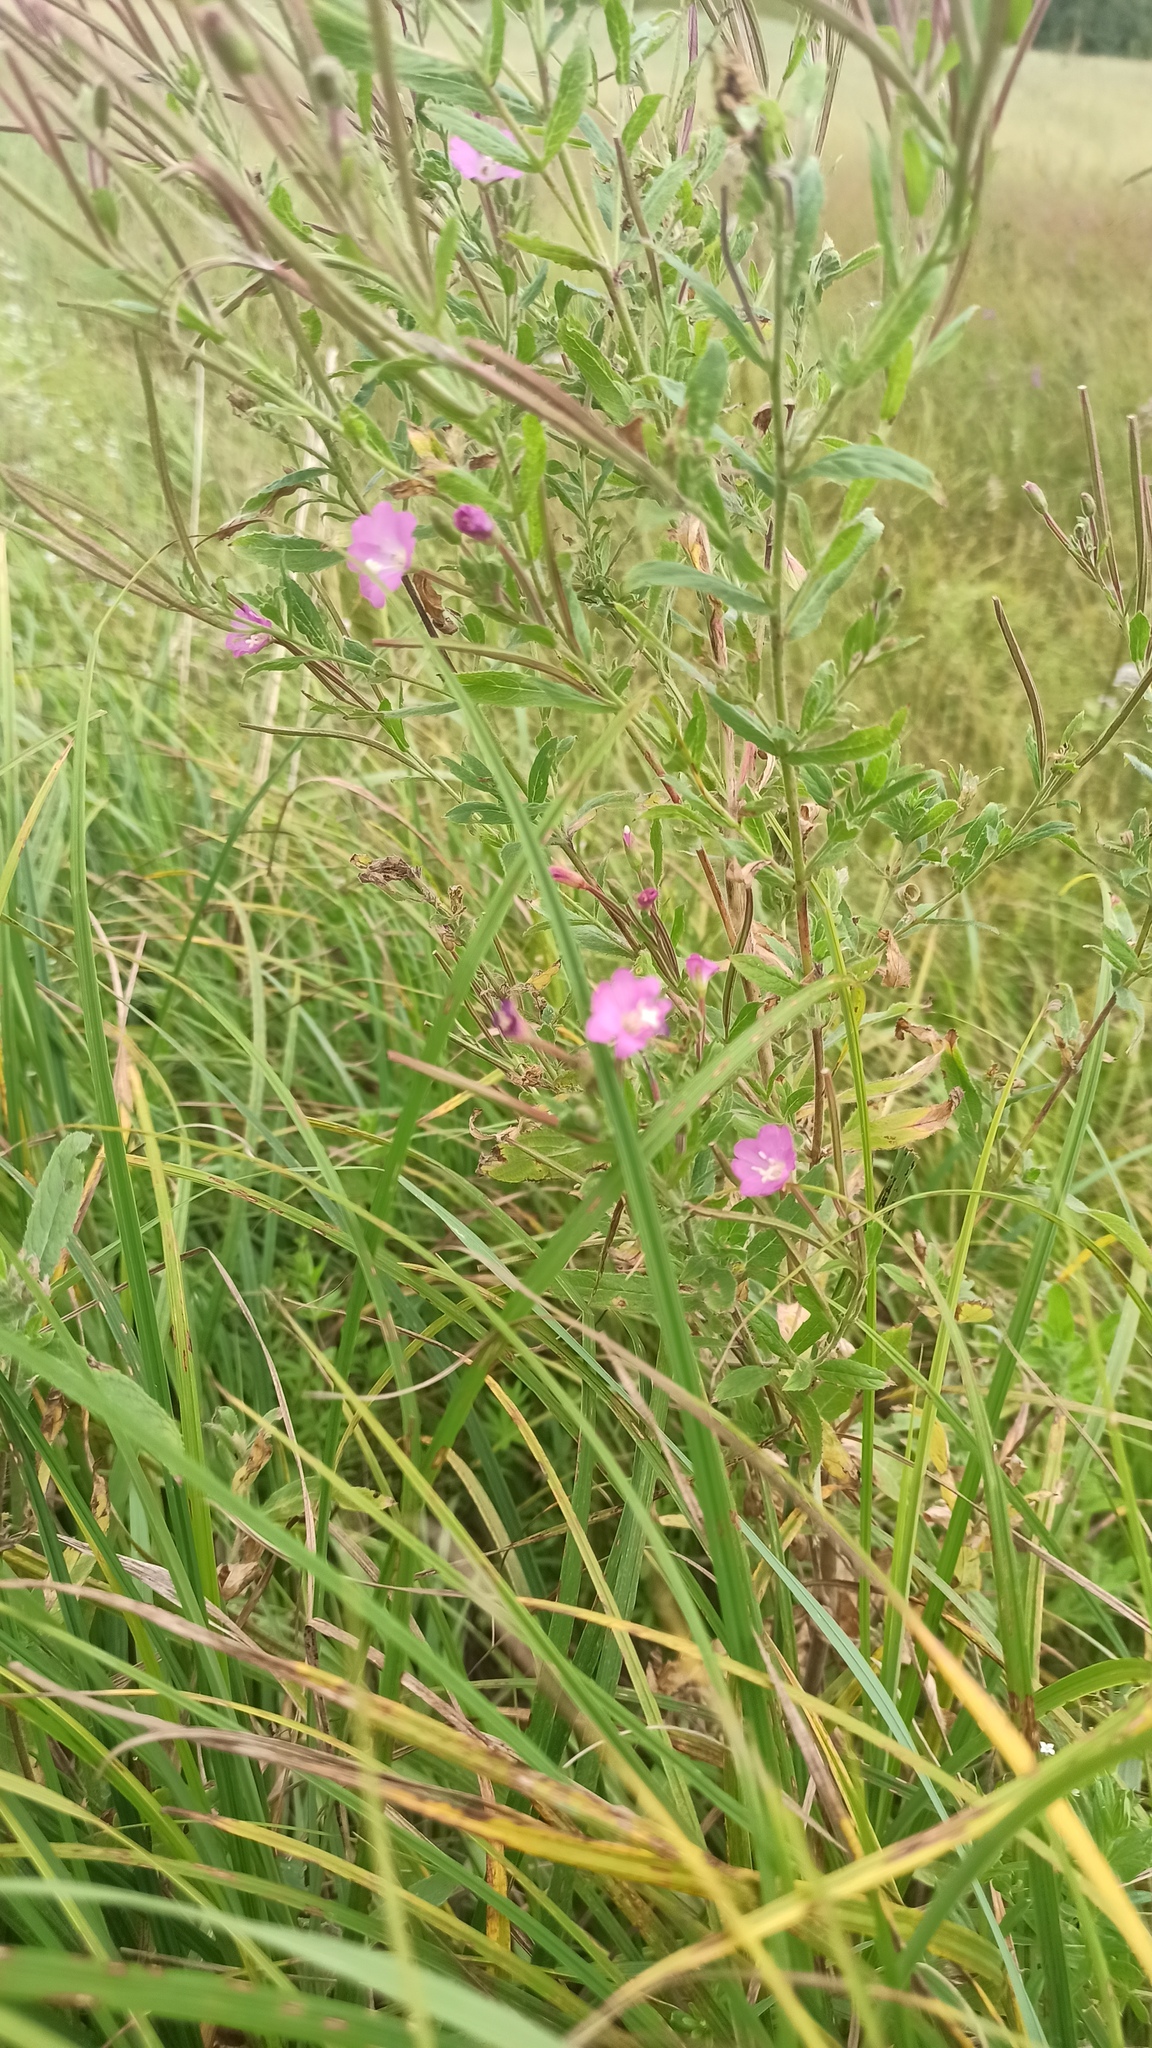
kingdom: Plantae
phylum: Tracheophyta
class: Magnoliopsida
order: Myrtales
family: Onagraceae
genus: Epilobium
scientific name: Epilobium hirsutum
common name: Great willowherb
